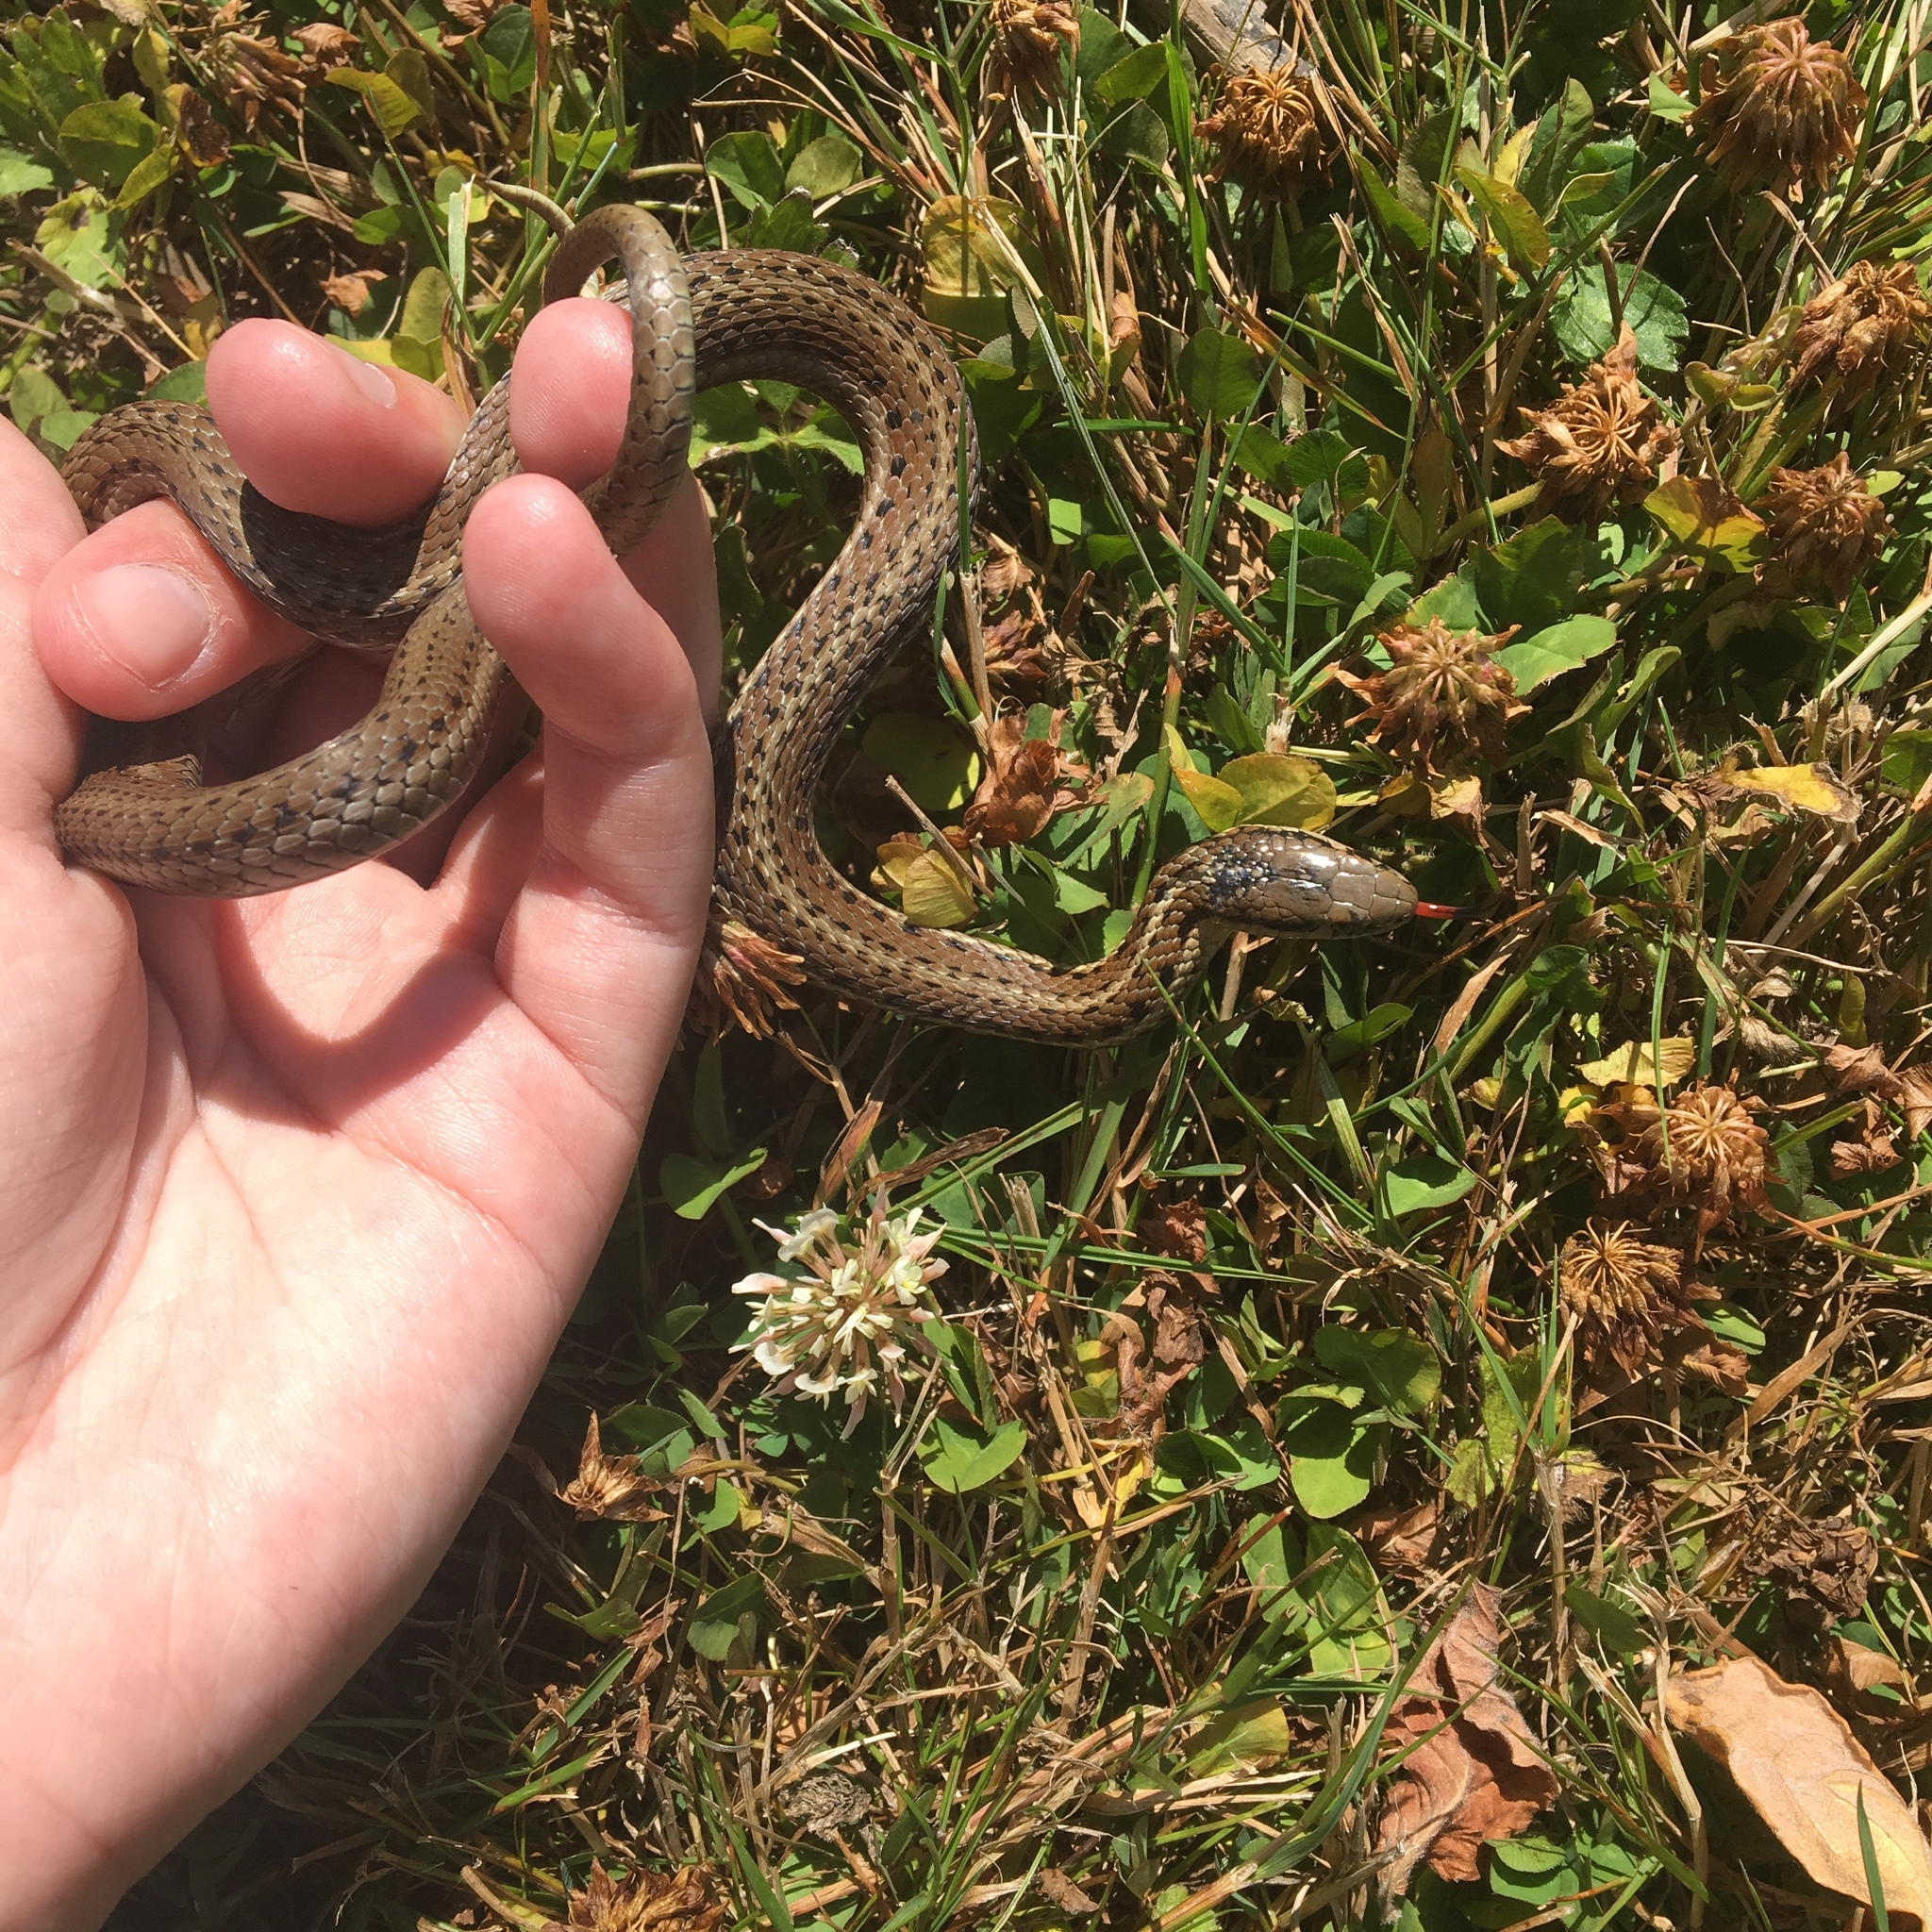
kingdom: Animalia
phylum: Chordata
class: Squamata
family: Colubridae
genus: Thamnophis
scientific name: Thamnophis ordinoides
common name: Northwestern garter snake
